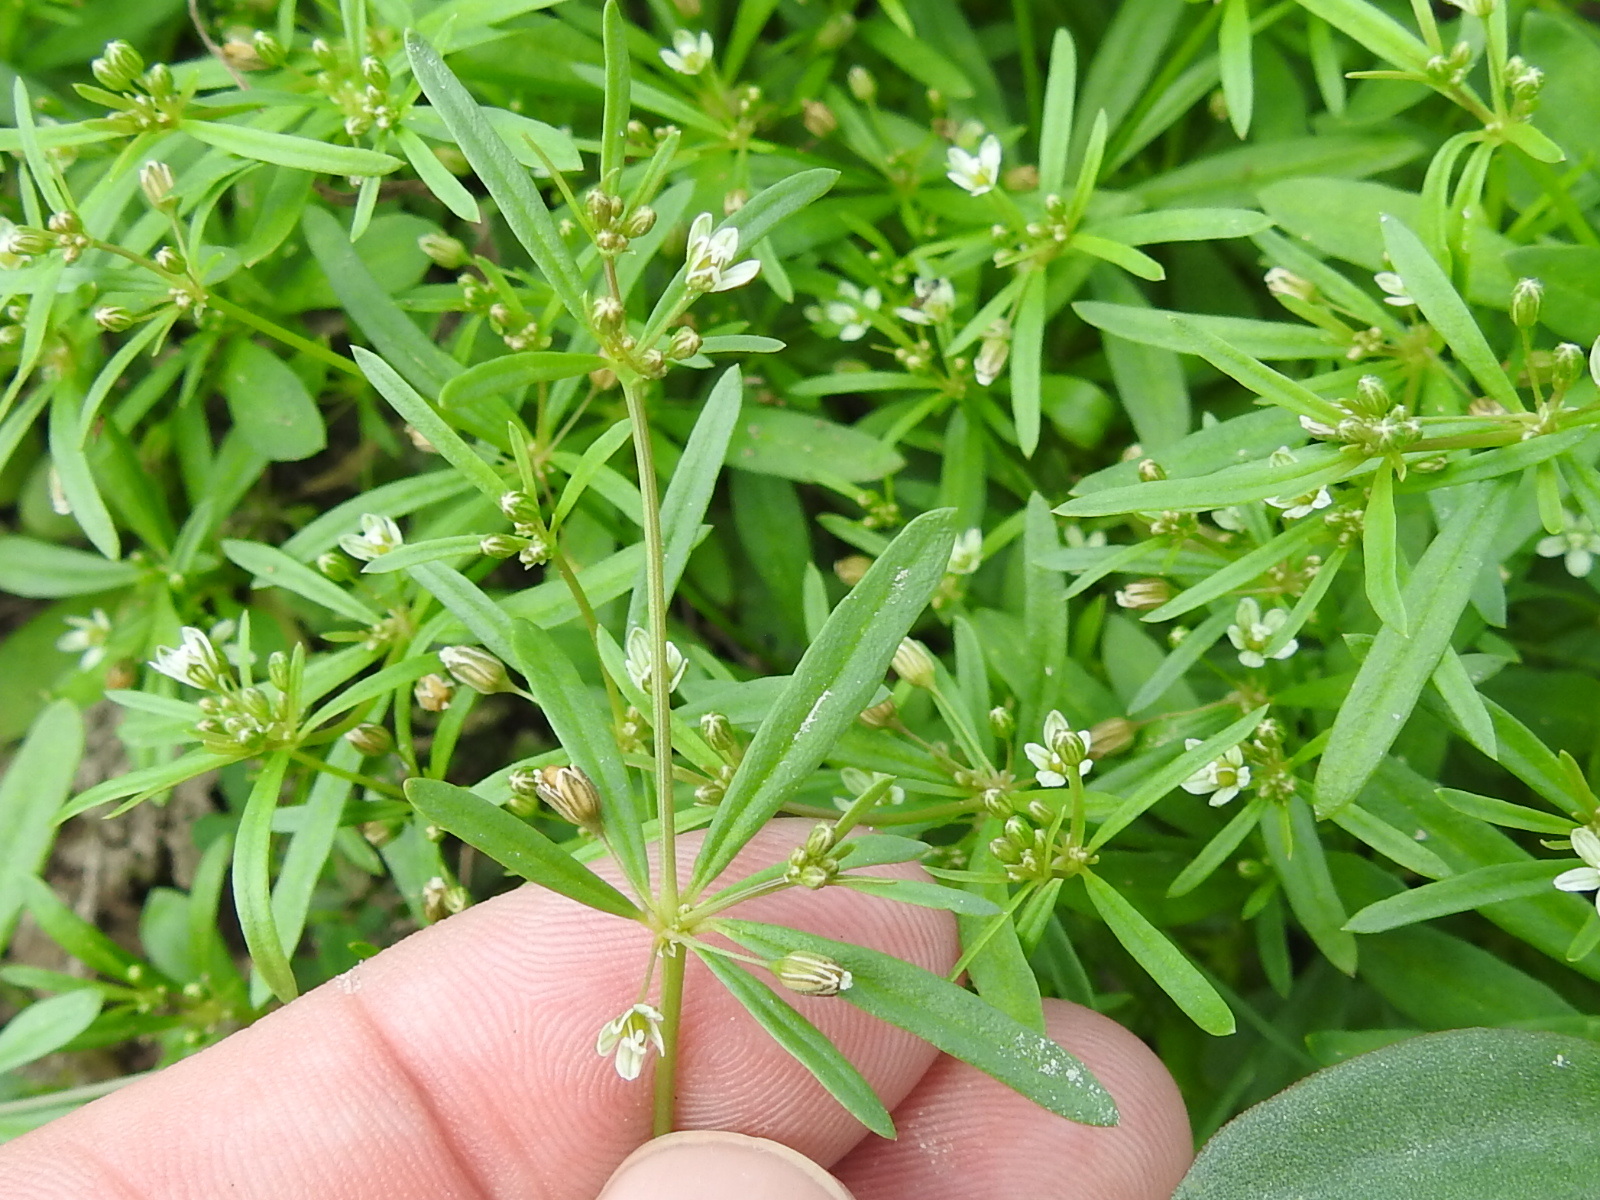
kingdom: Plantae
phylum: Tracheophyta
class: Magnoliopsida
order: Caryophyllales
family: Molluginaceae
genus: Mollugo
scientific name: Mollugo verticillata
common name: Green carpetweed
